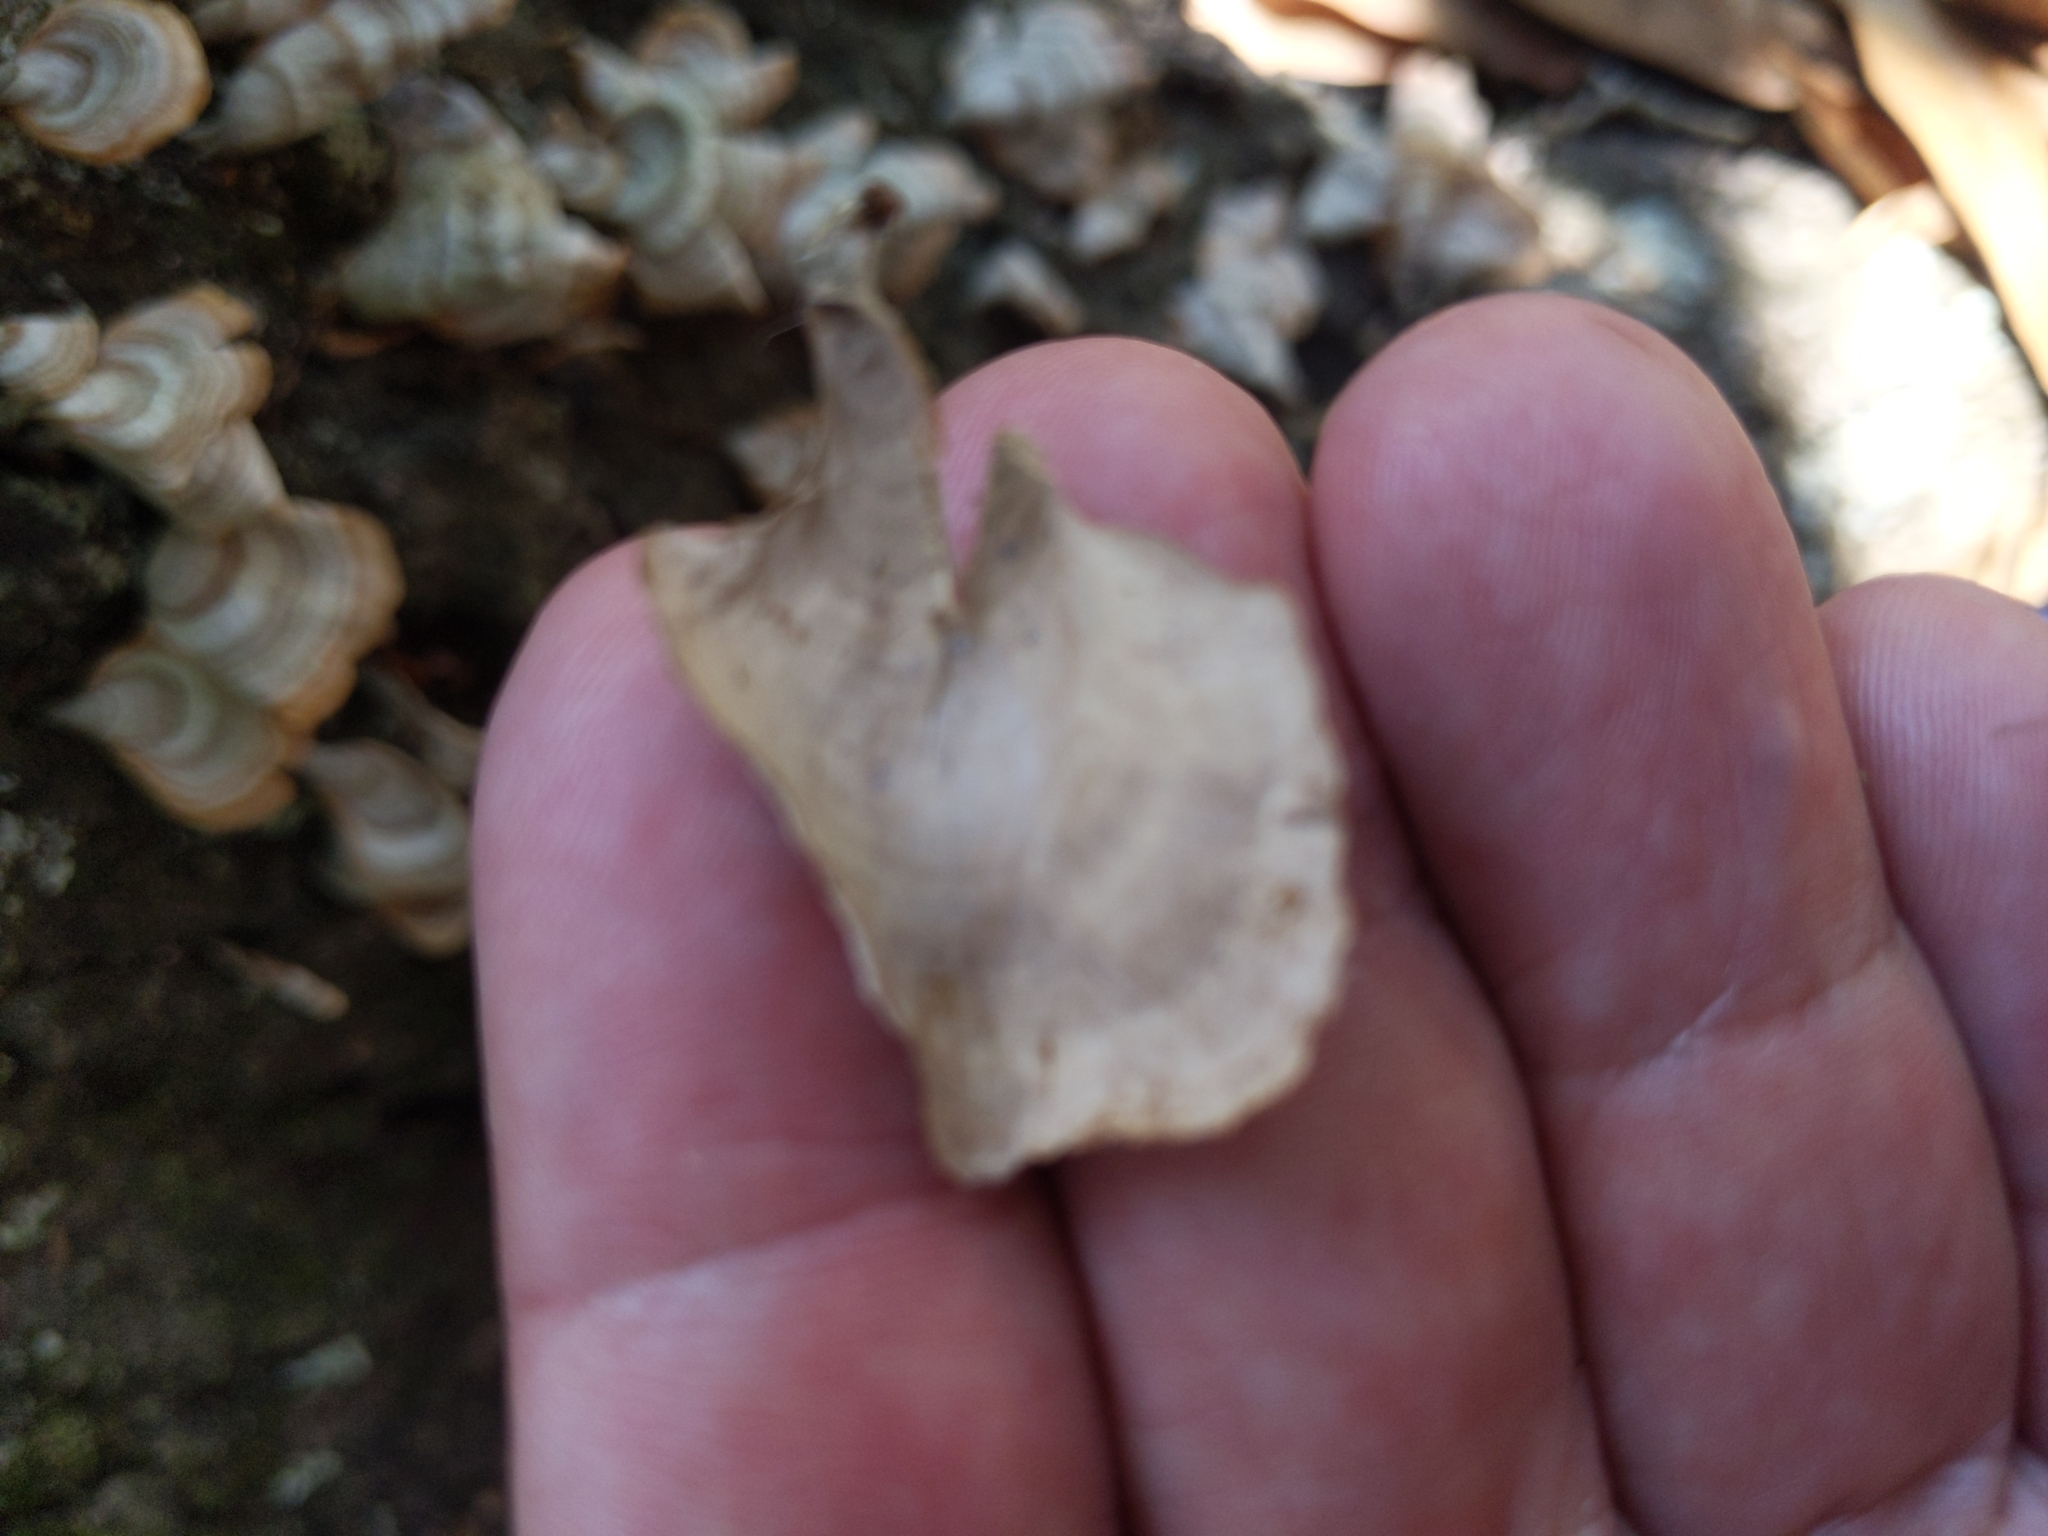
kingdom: Fungi
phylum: Basidiomycota
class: Agaricomycetes
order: Russulales
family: Stereaceae
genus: Stereum
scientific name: Stereum ostrea
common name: False turkeytail
